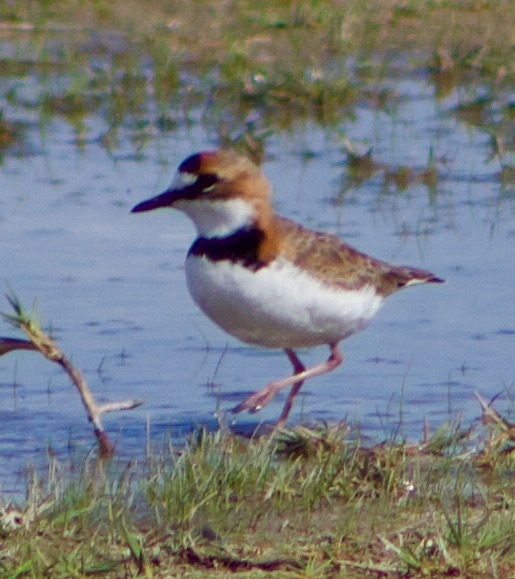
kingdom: Animalia
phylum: Chordata
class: Aves
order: Charadriiformes
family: Charadriidae
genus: Anarhynchus
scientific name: Anarhynchus
